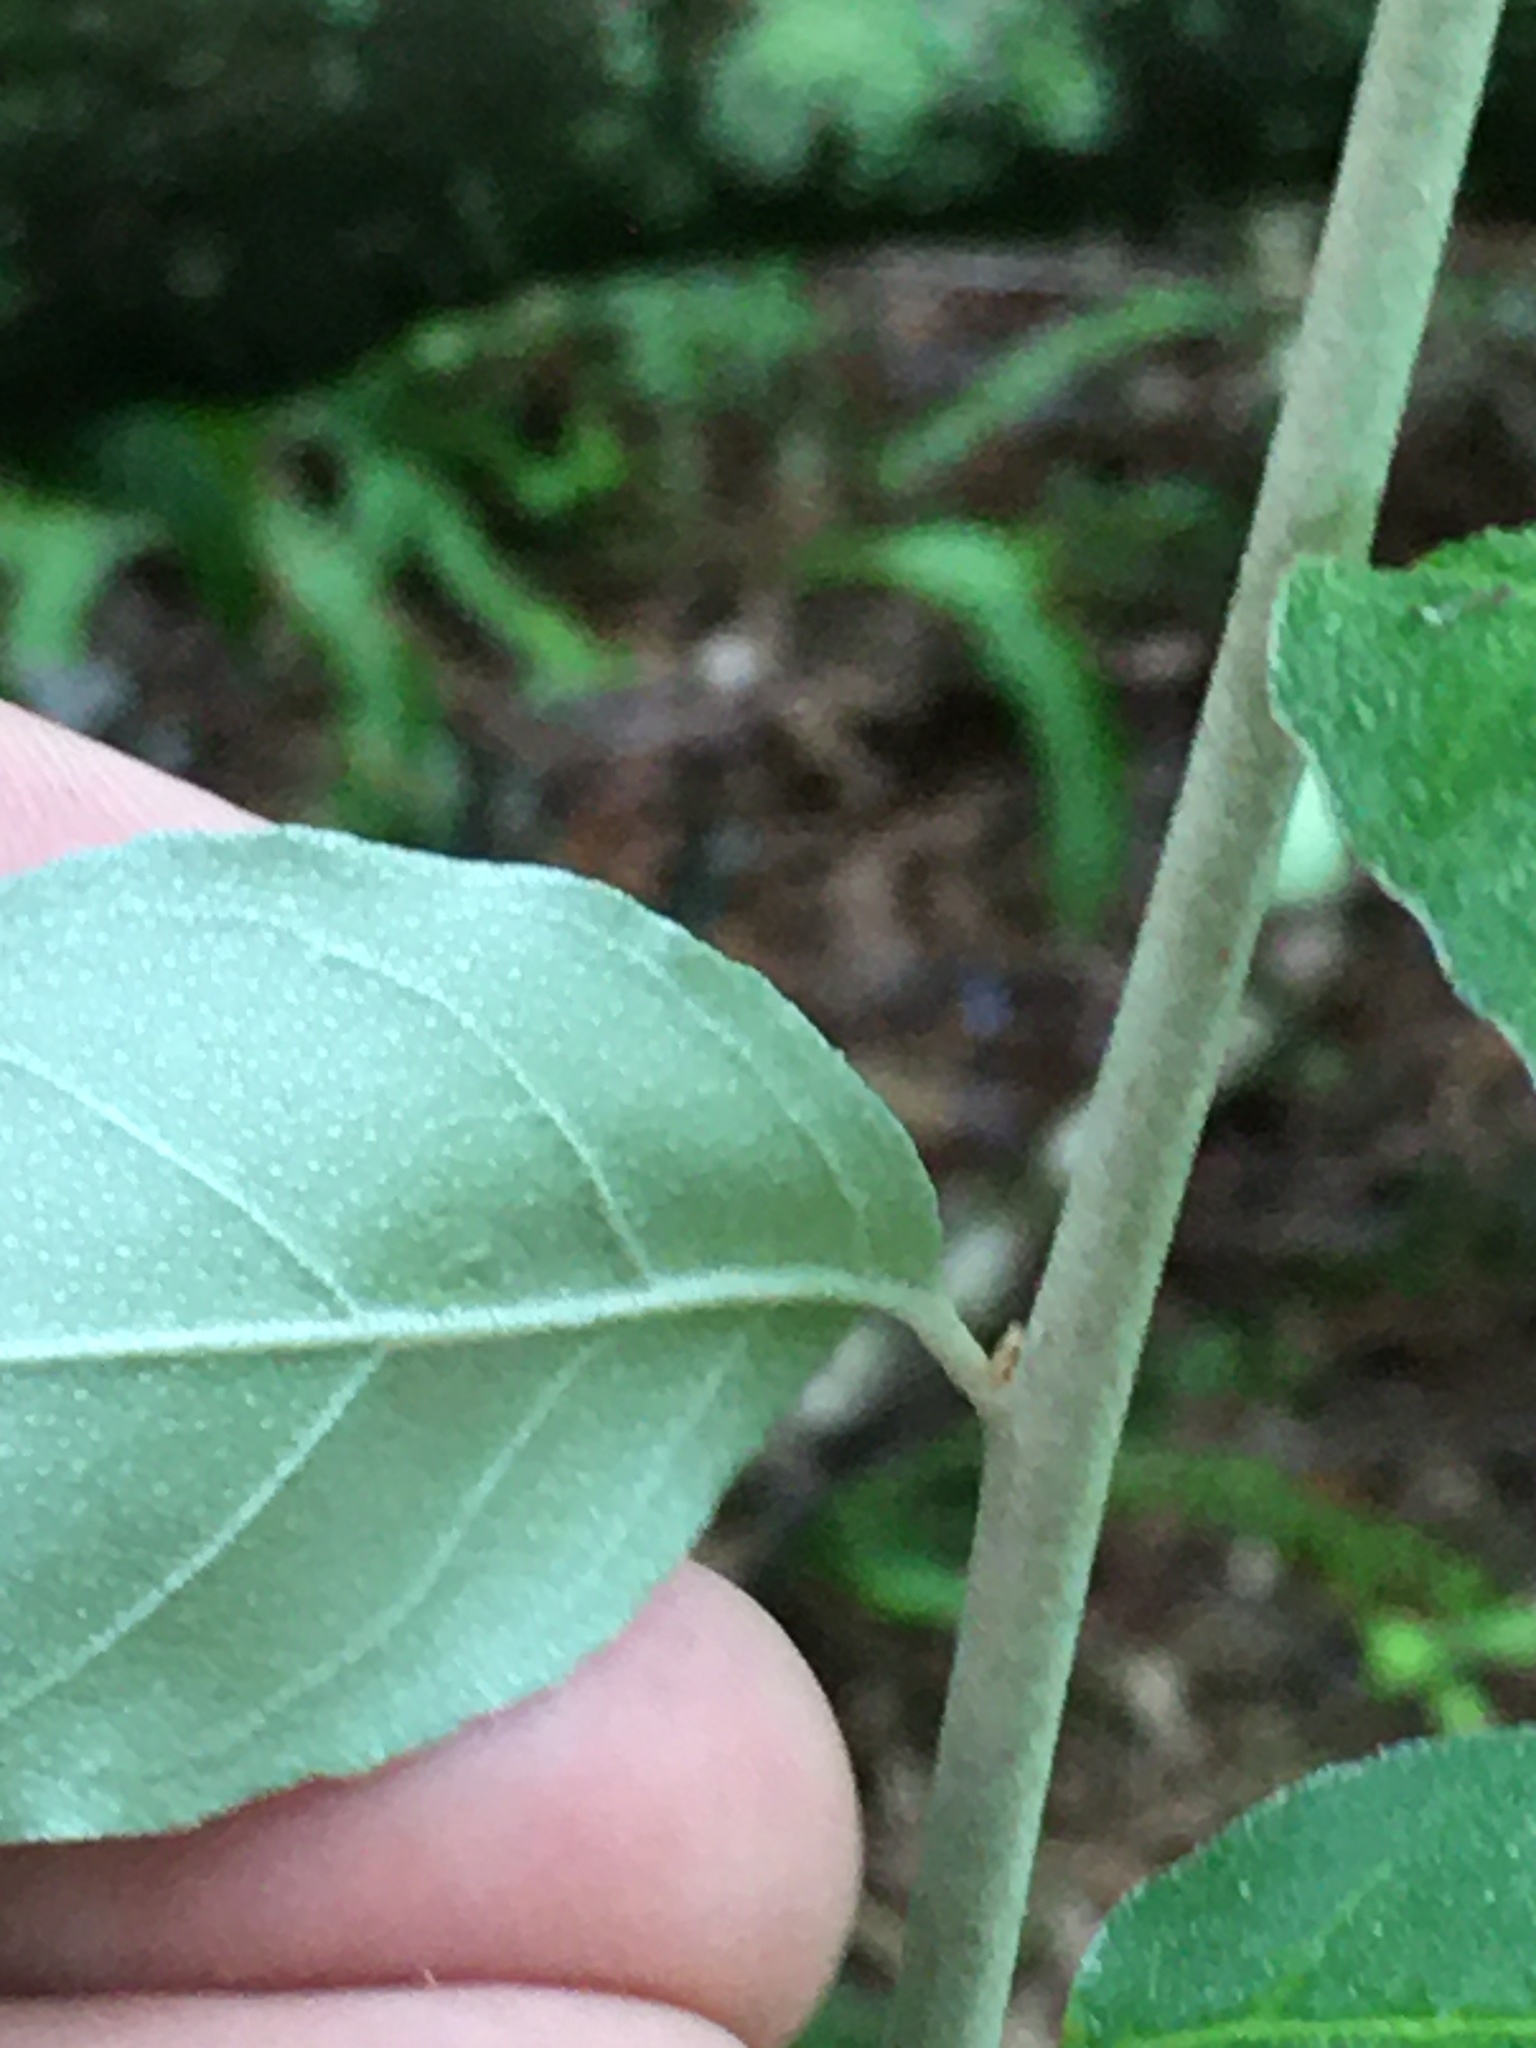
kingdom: Plantae
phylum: Tracheophyta
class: Magnoliopsida
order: Rosales
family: Elaeagnaceae
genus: Elaeagnus
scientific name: Elaeagnus umbellata
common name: Autumn olive
